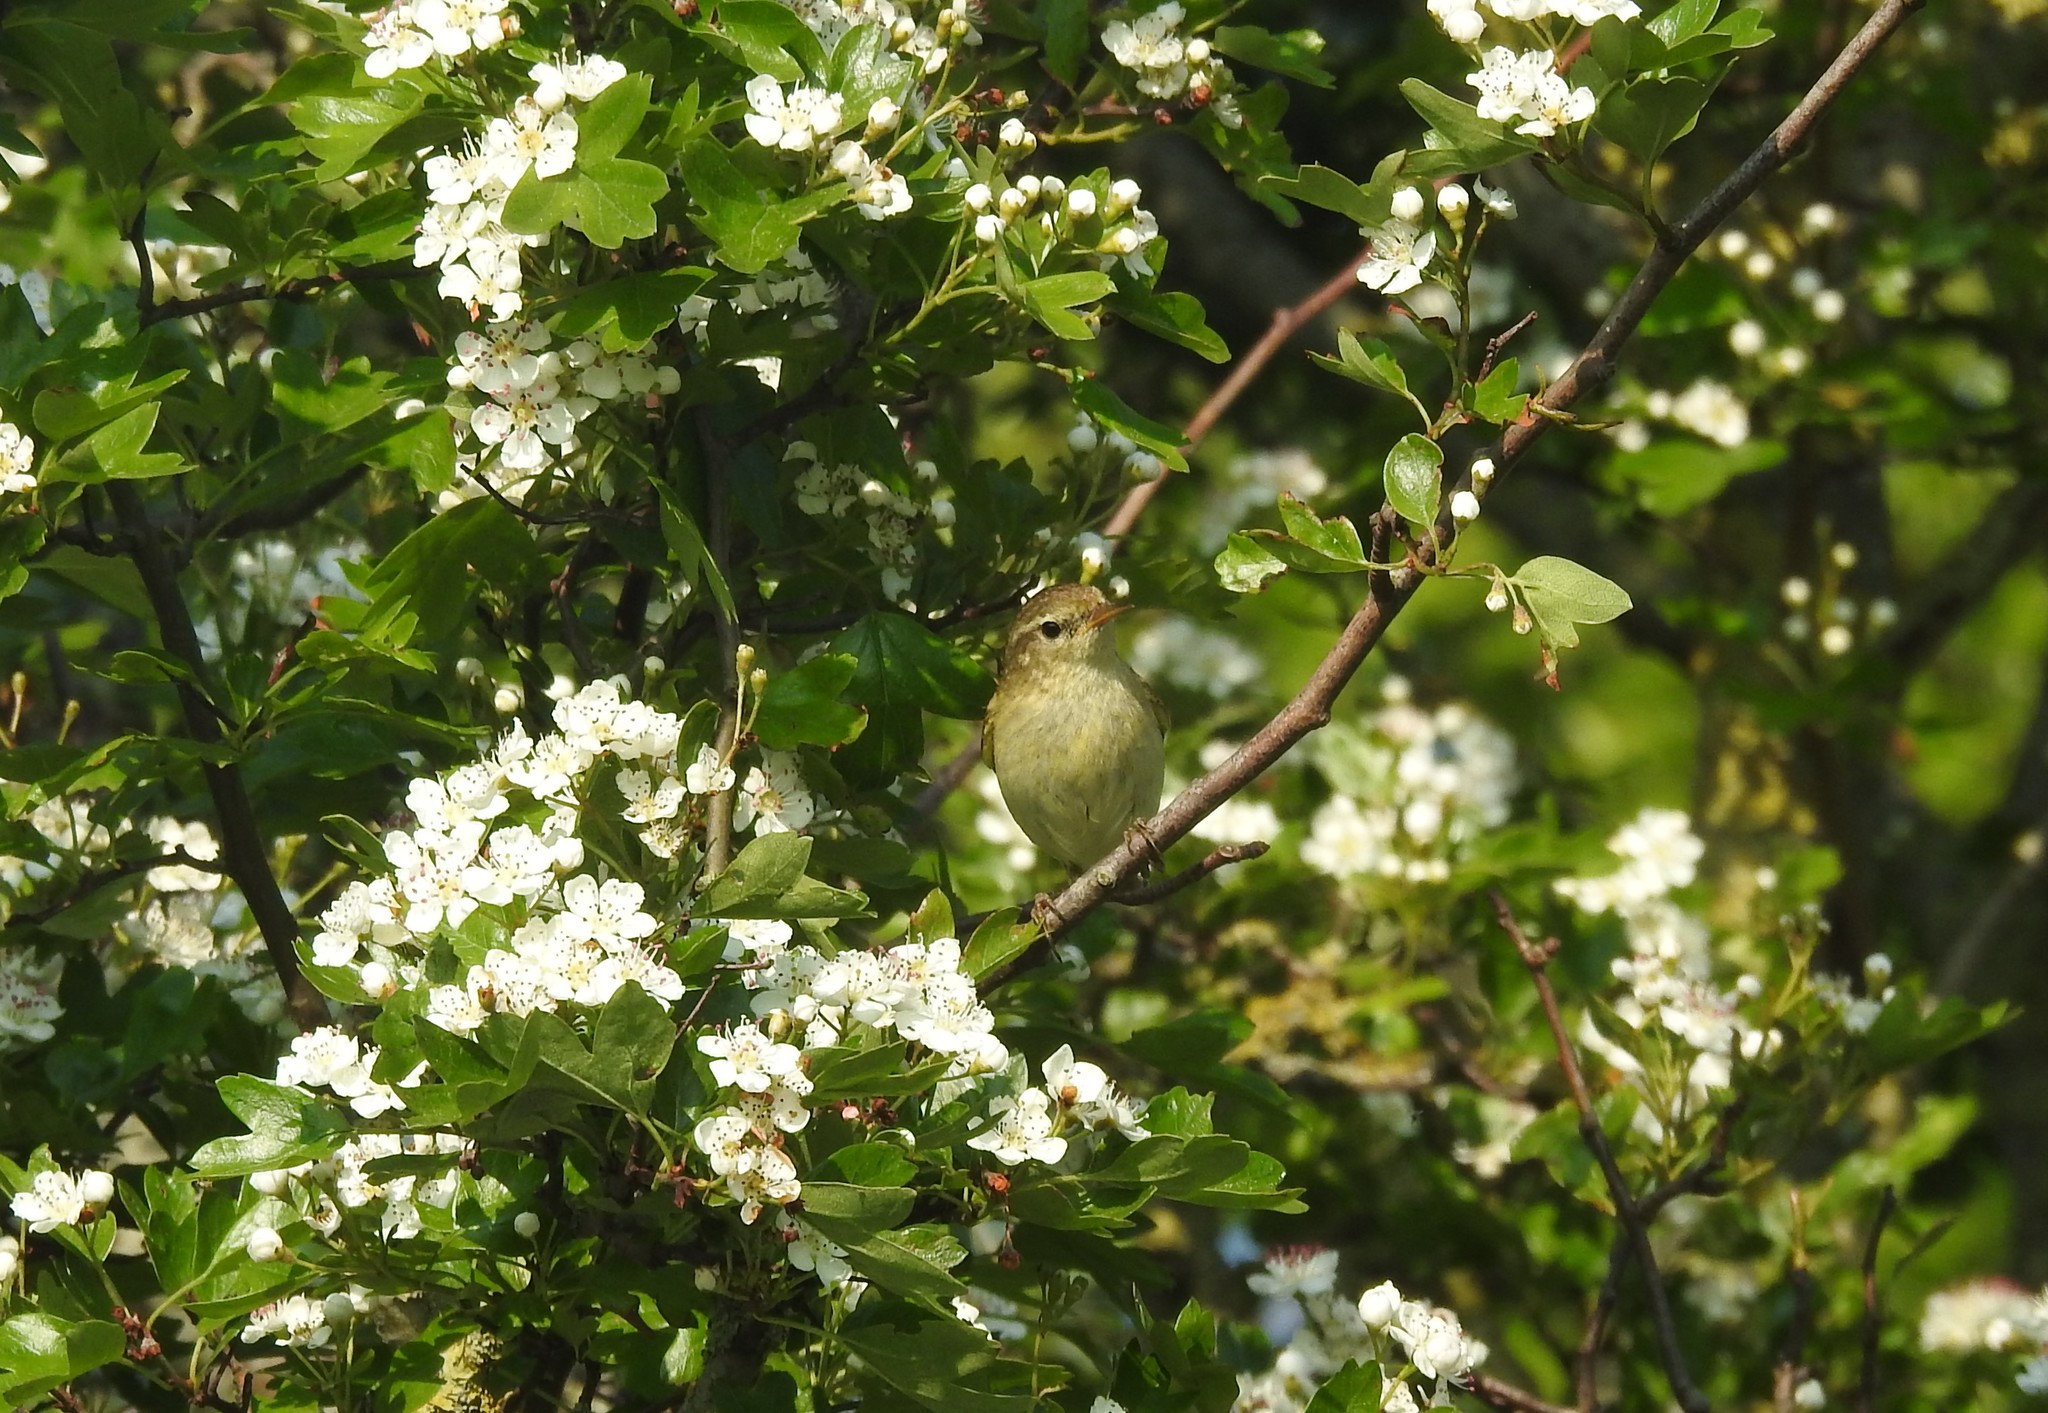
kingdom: Animalia
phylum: Chordata
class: Aves
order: Passeriformes
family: Phylloscopidae
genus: Phylloscopus
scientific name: Phylloscopus trochilus
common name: Willow warbler
